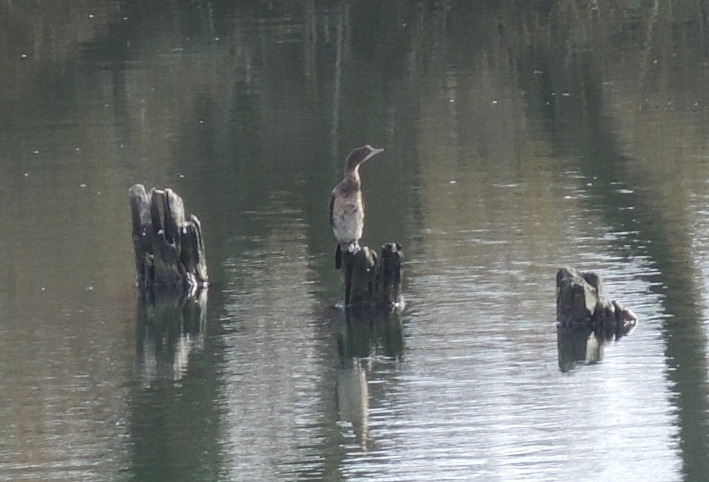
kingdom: Animalia
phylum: Chordata
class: Aves
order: Suliformes
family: Phalacrocoracidae
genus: Microcarbo
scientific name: Microcarbo pygmaeus
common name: Pygmy cormorant
